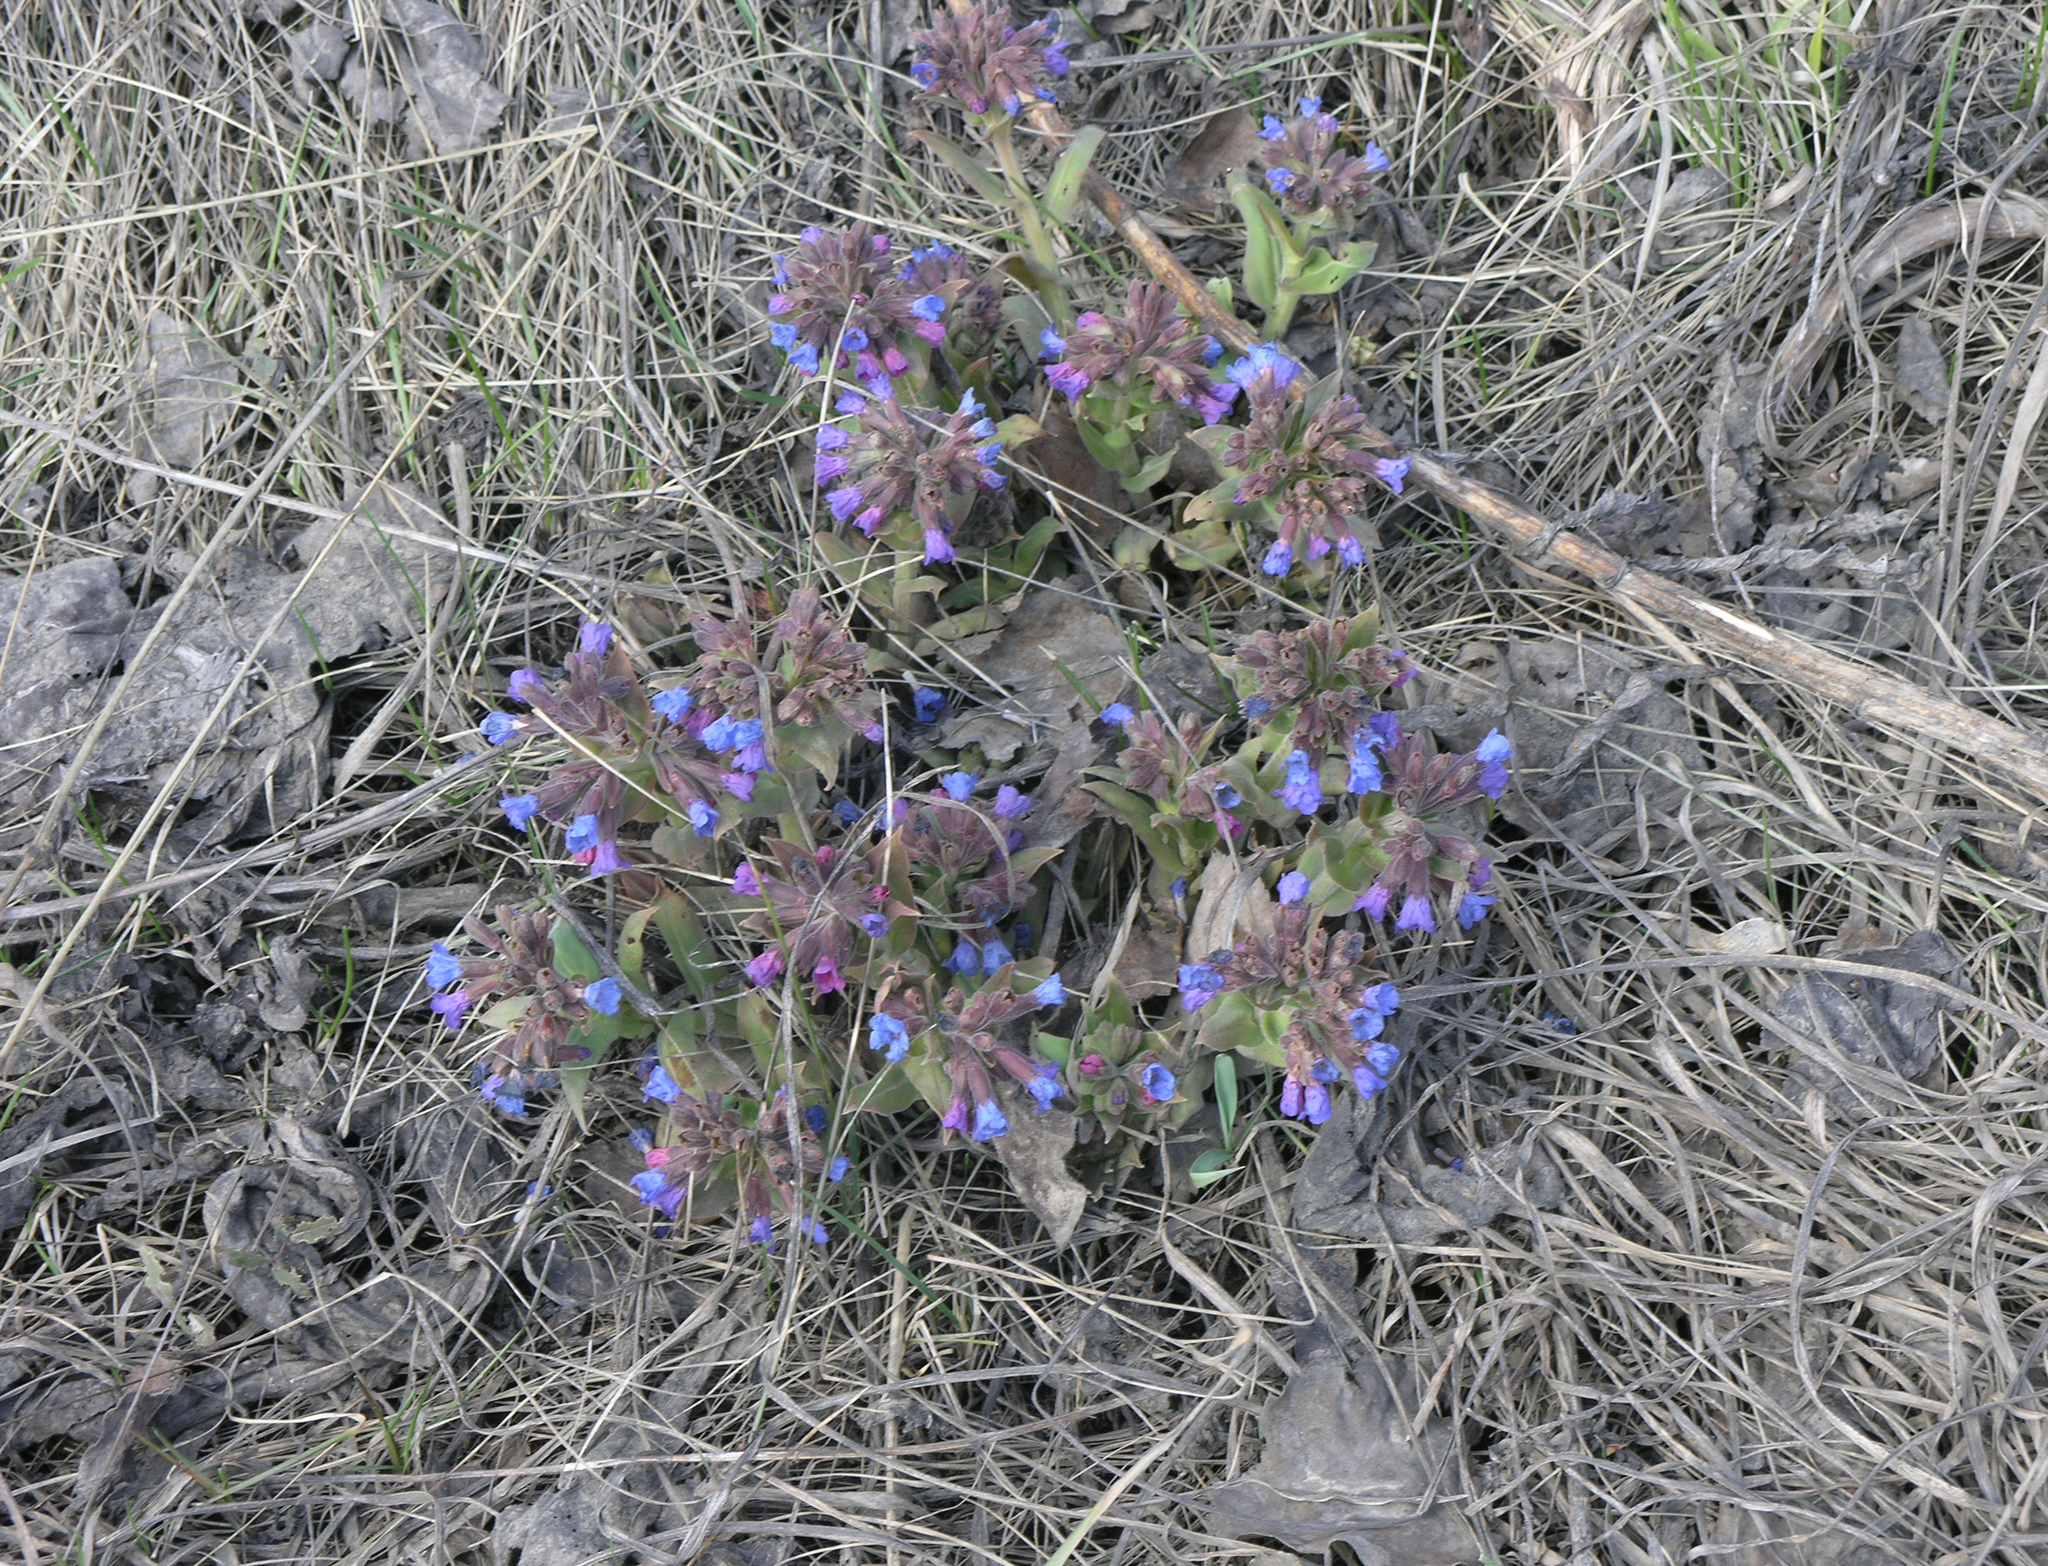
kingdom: Plantae
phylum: Tracheophyta
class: Magnoliopsida
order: Boraginales
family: Boraginaceae
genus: Pulmonaria
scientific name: Pulmonaria mollis
